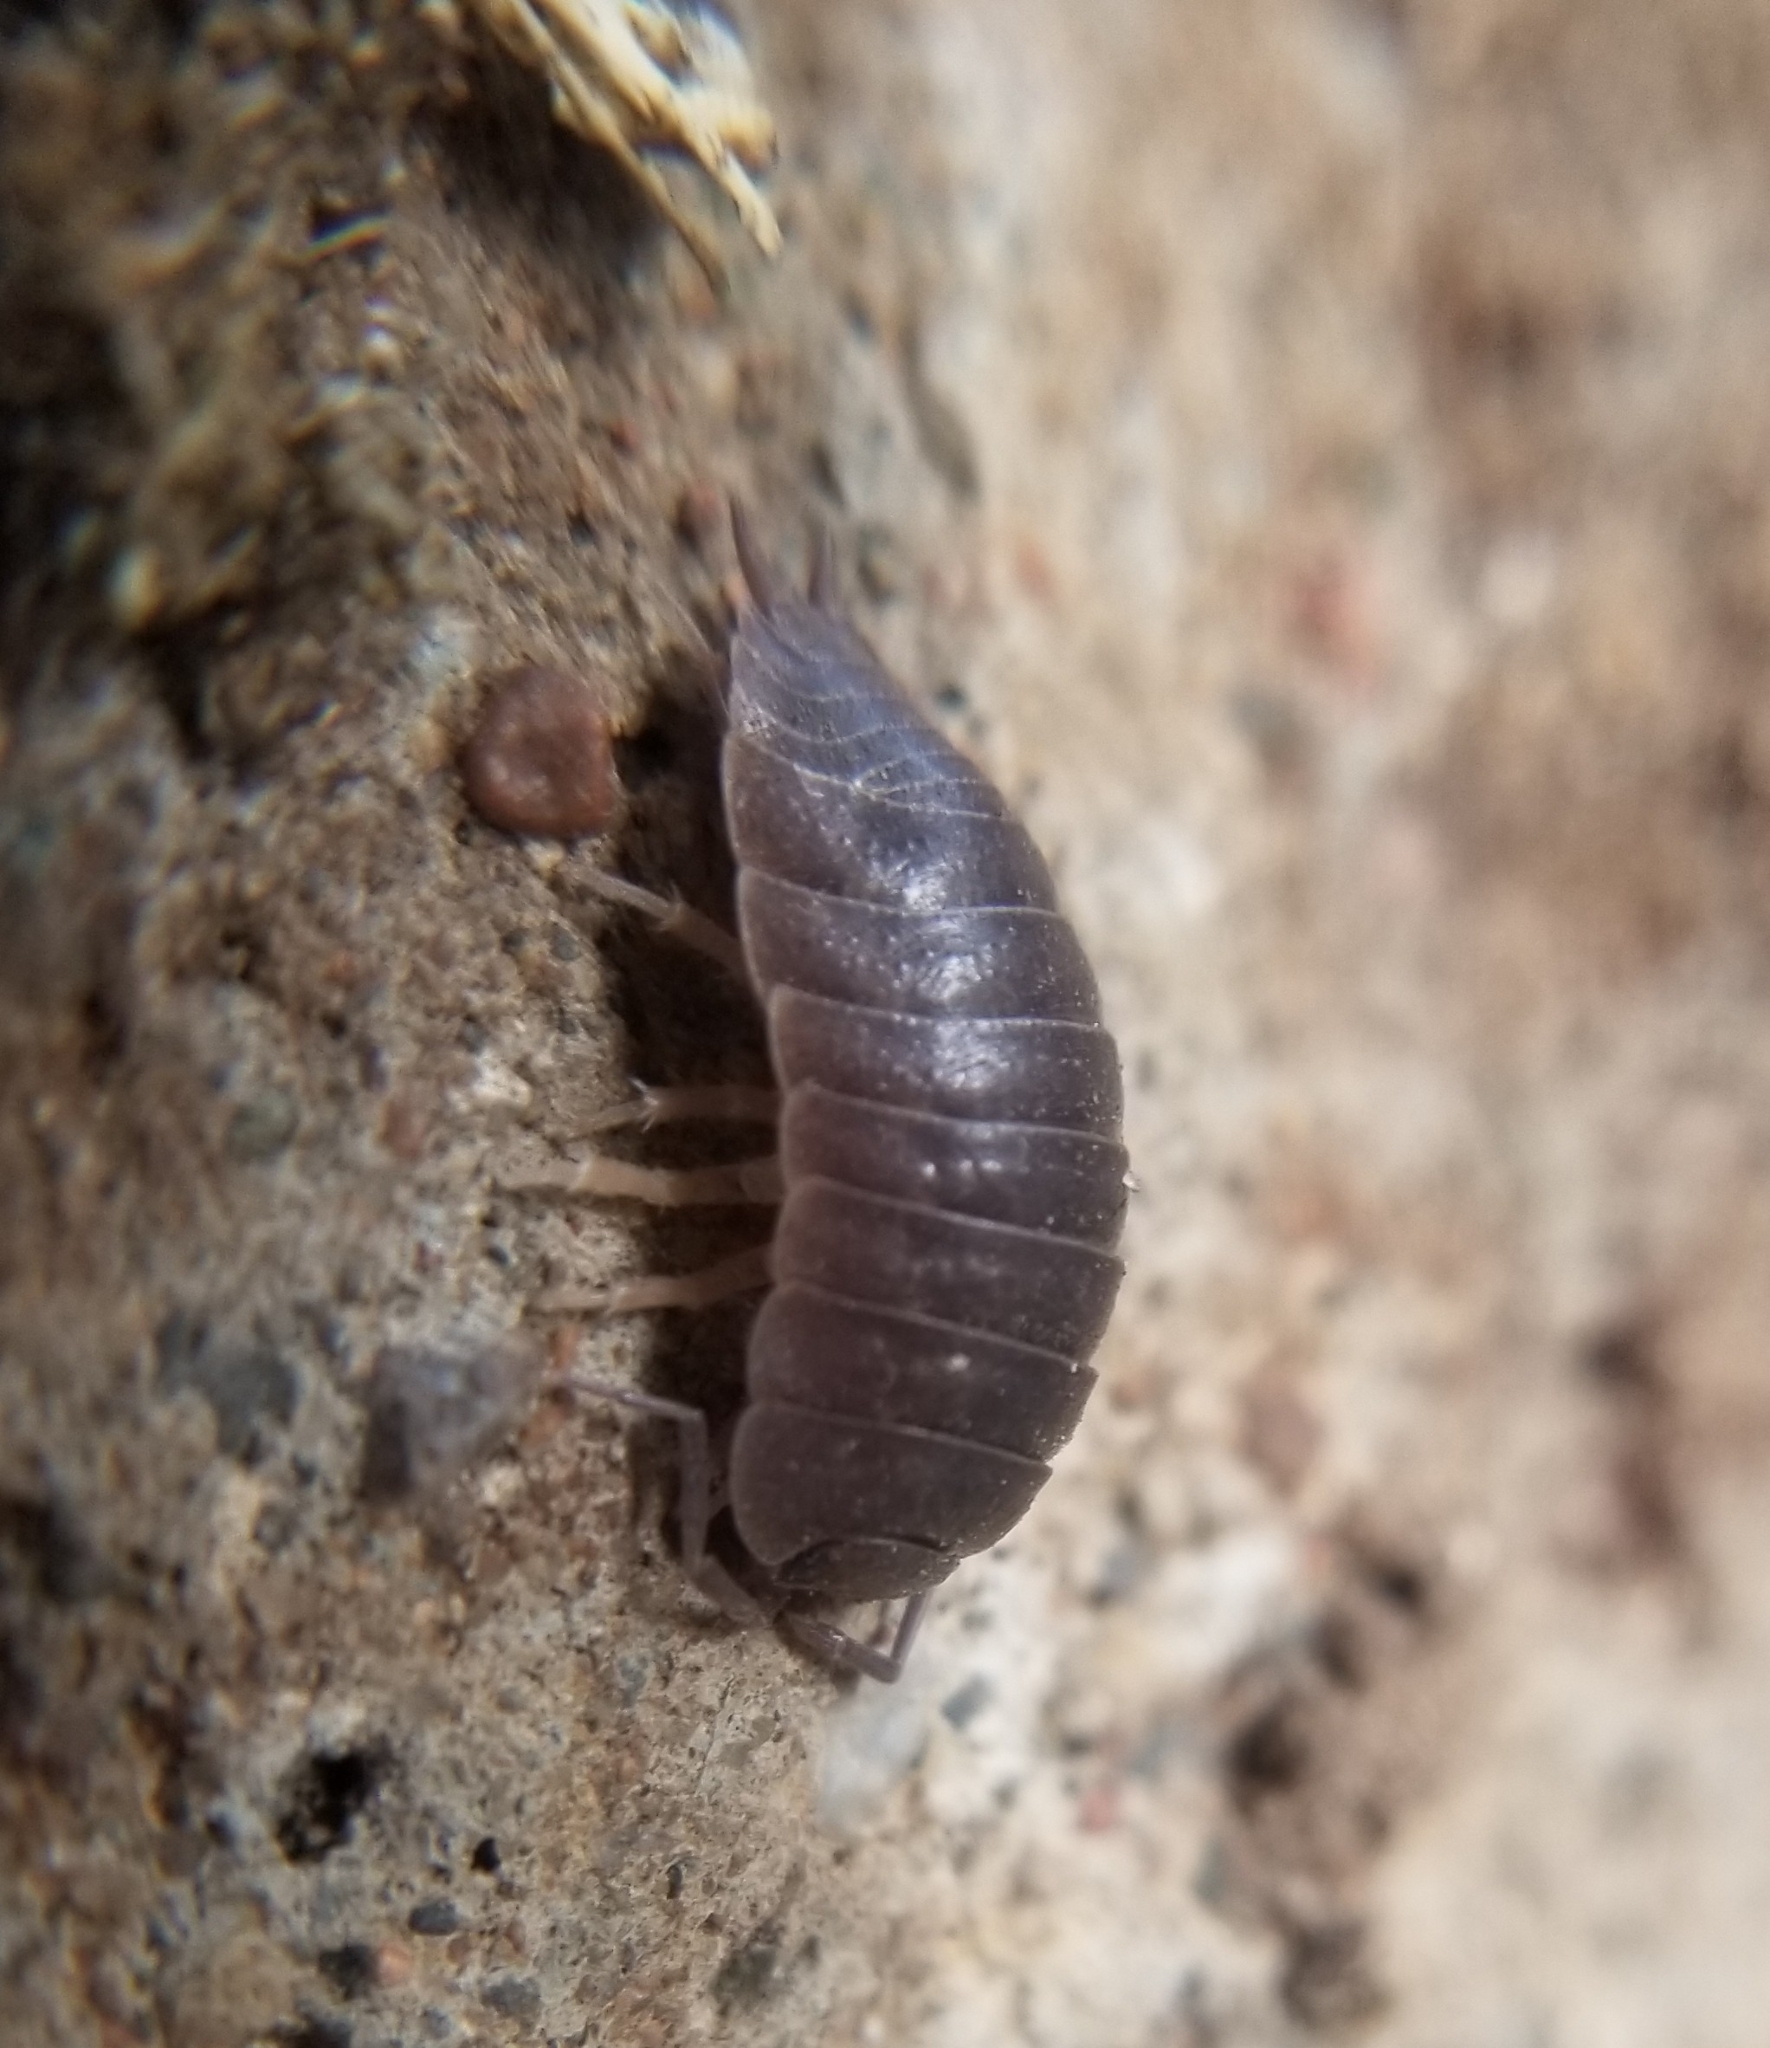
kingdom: Animalia
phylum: Arthropoda
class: Malacostraca
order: Isopoda
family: Porcellionidae
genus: Porcellio
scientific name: Porcellio laevis
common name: Swift woodlouse
